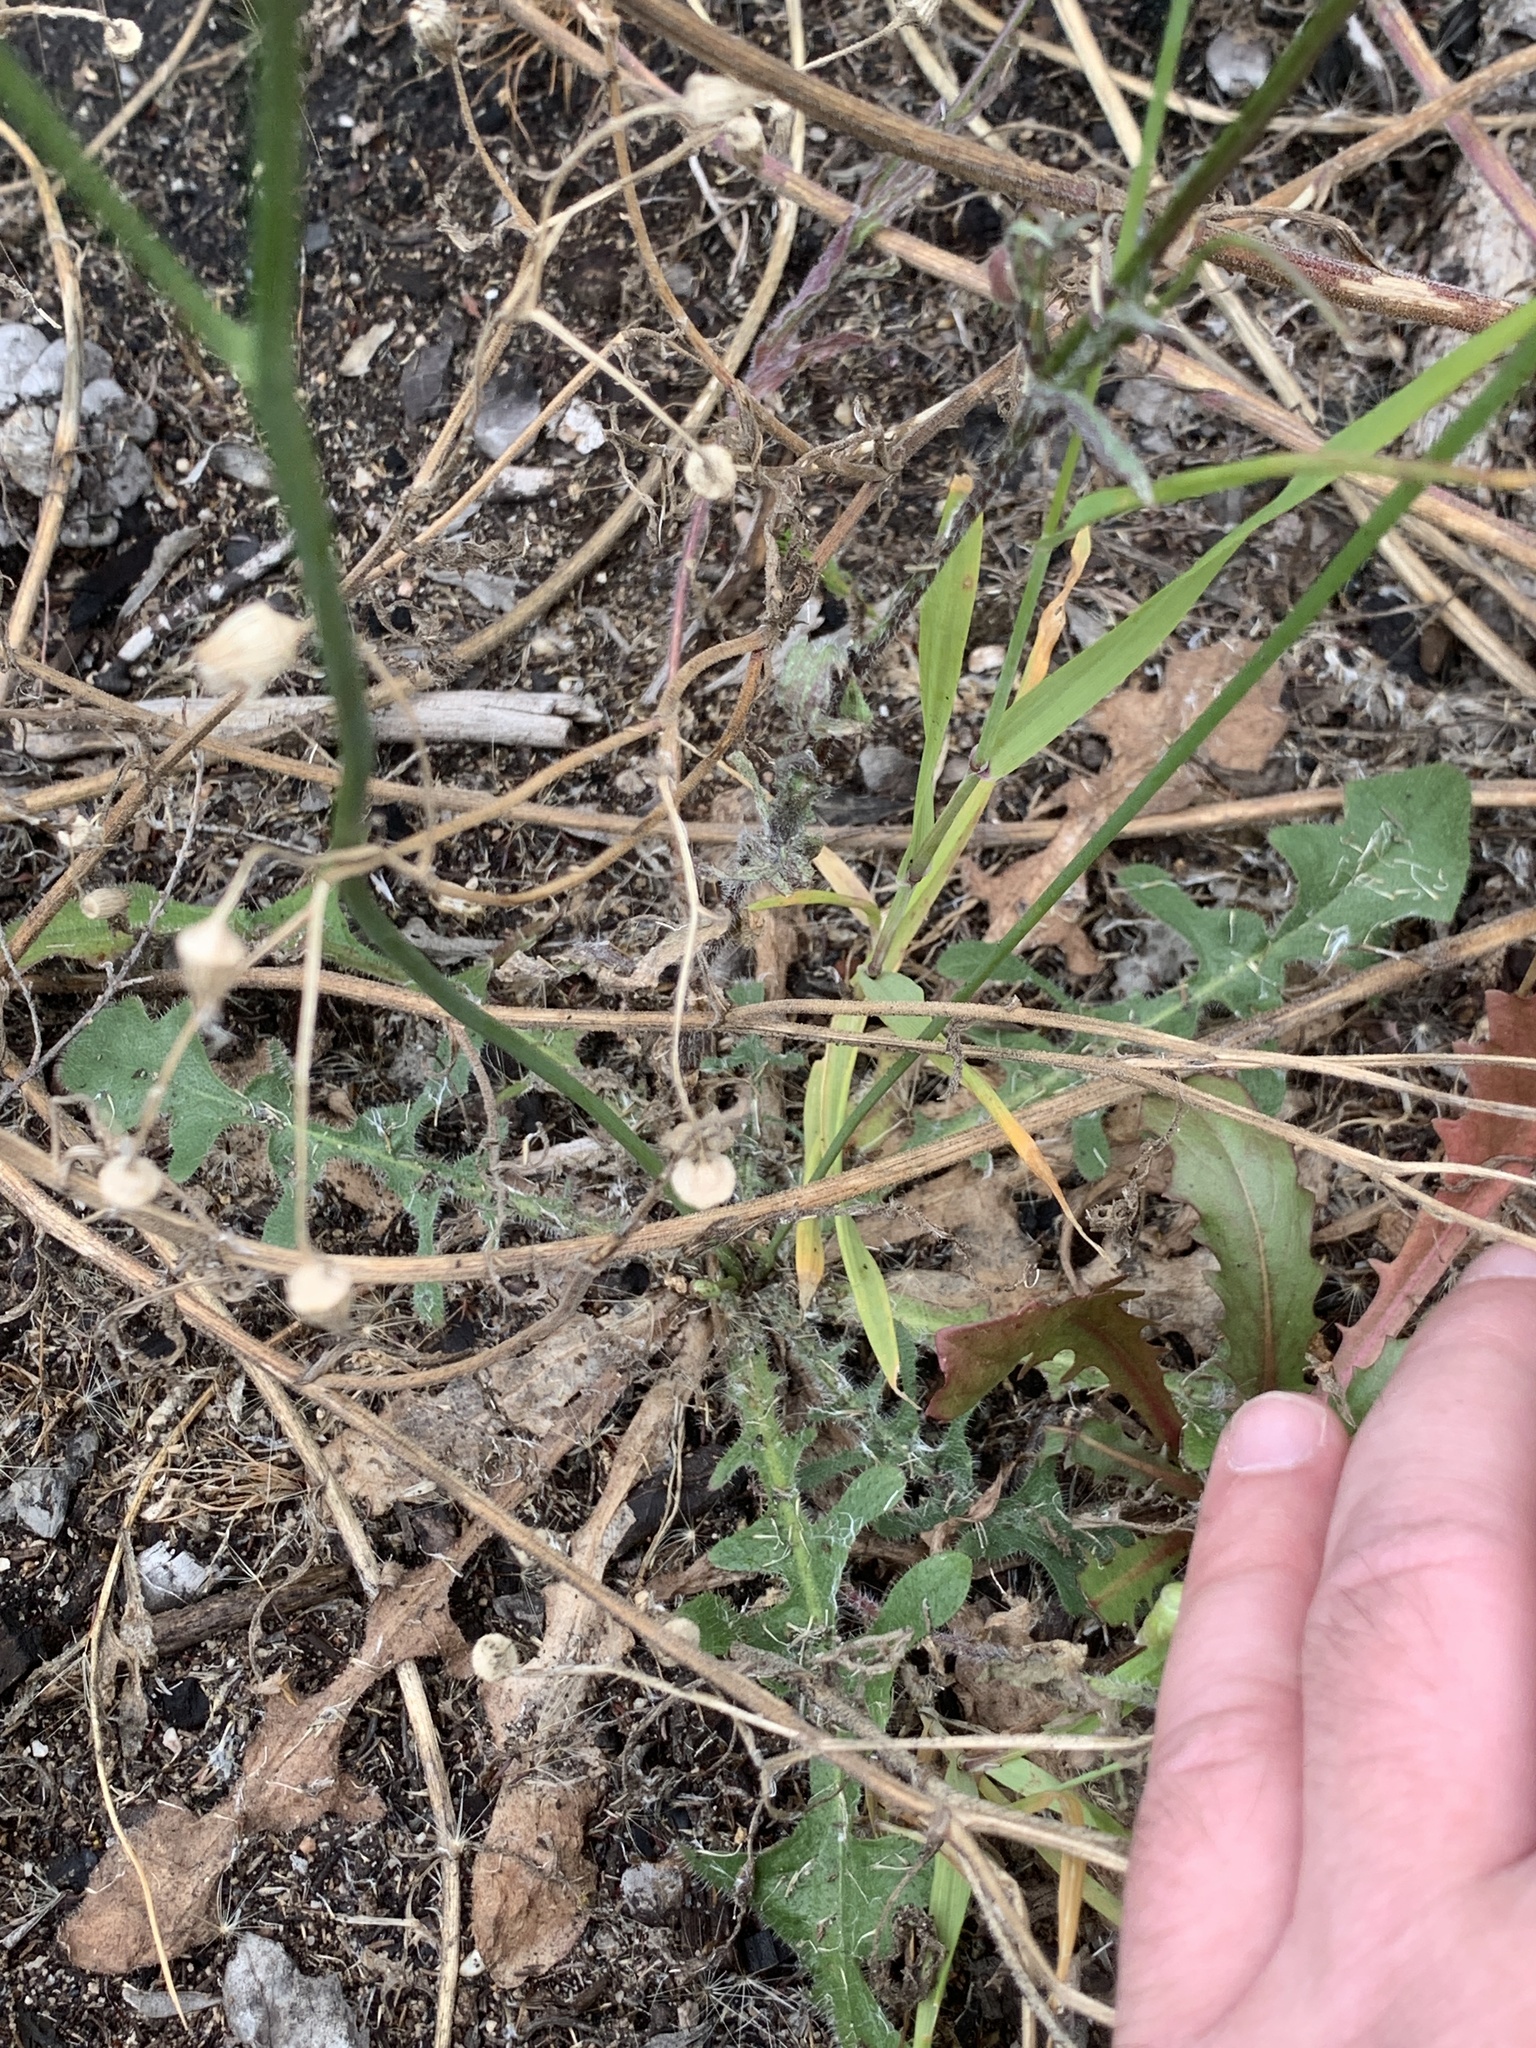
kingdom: Plantae
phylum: Tracheophyta
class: Magnoliopsida
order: Asterales
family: Asteraceae
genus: Hypochaeris
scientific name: Hypochaeris radicata
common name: Flatweed
